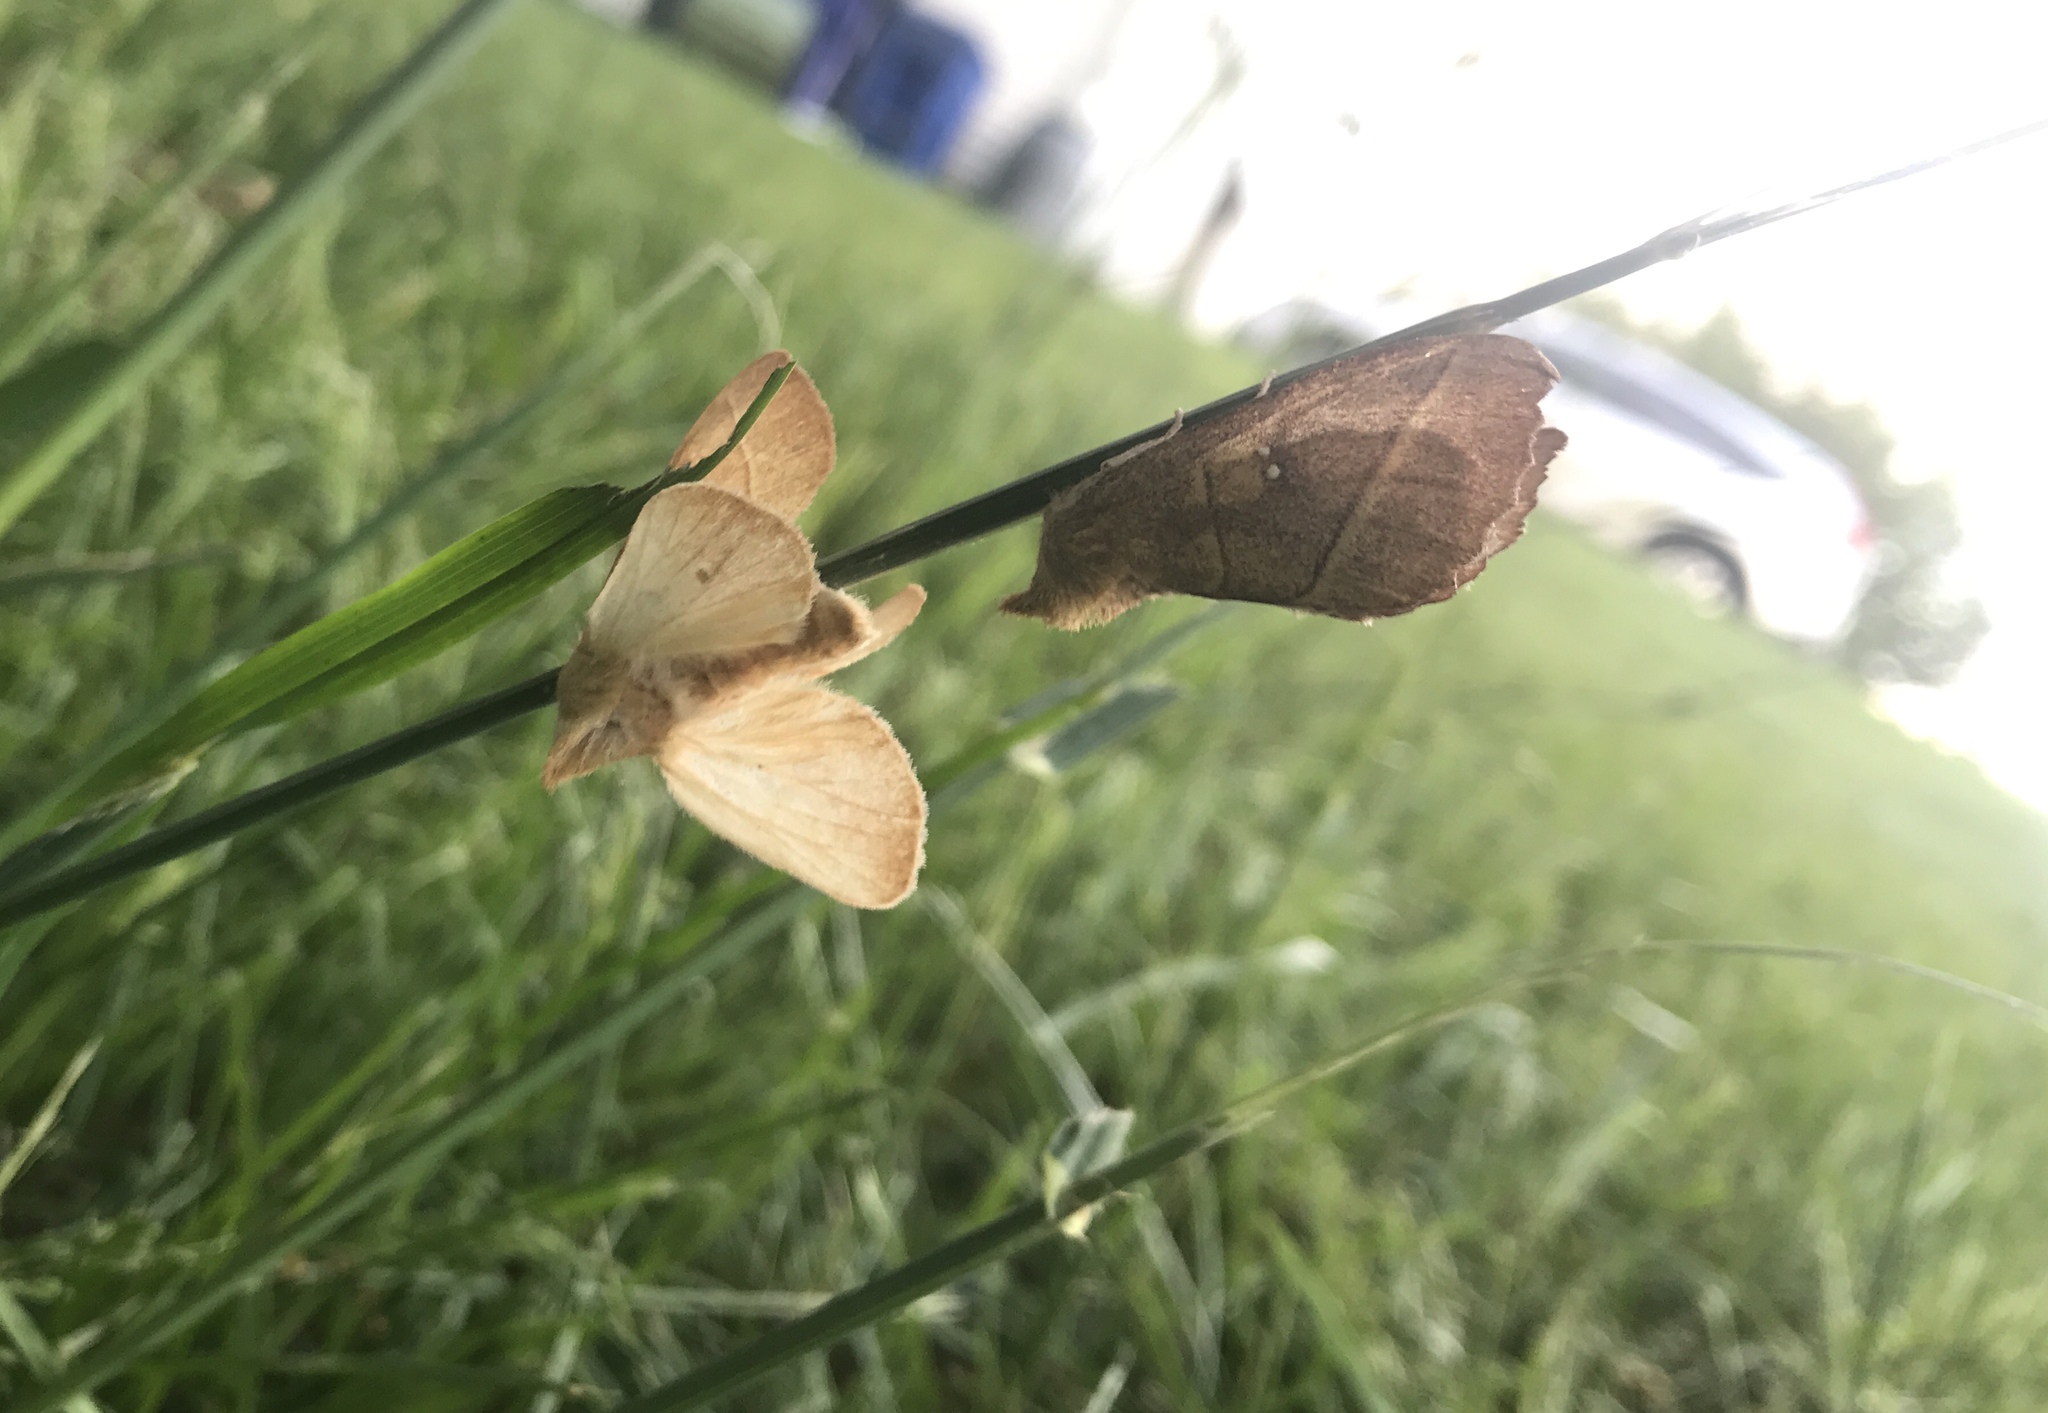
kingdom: Animalia
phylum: Arthropoda
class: Insecta
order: Lepidoptera
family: Notodontidae
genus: Nadata
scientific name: Nadata gibbosa
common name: White-dotted prominent
